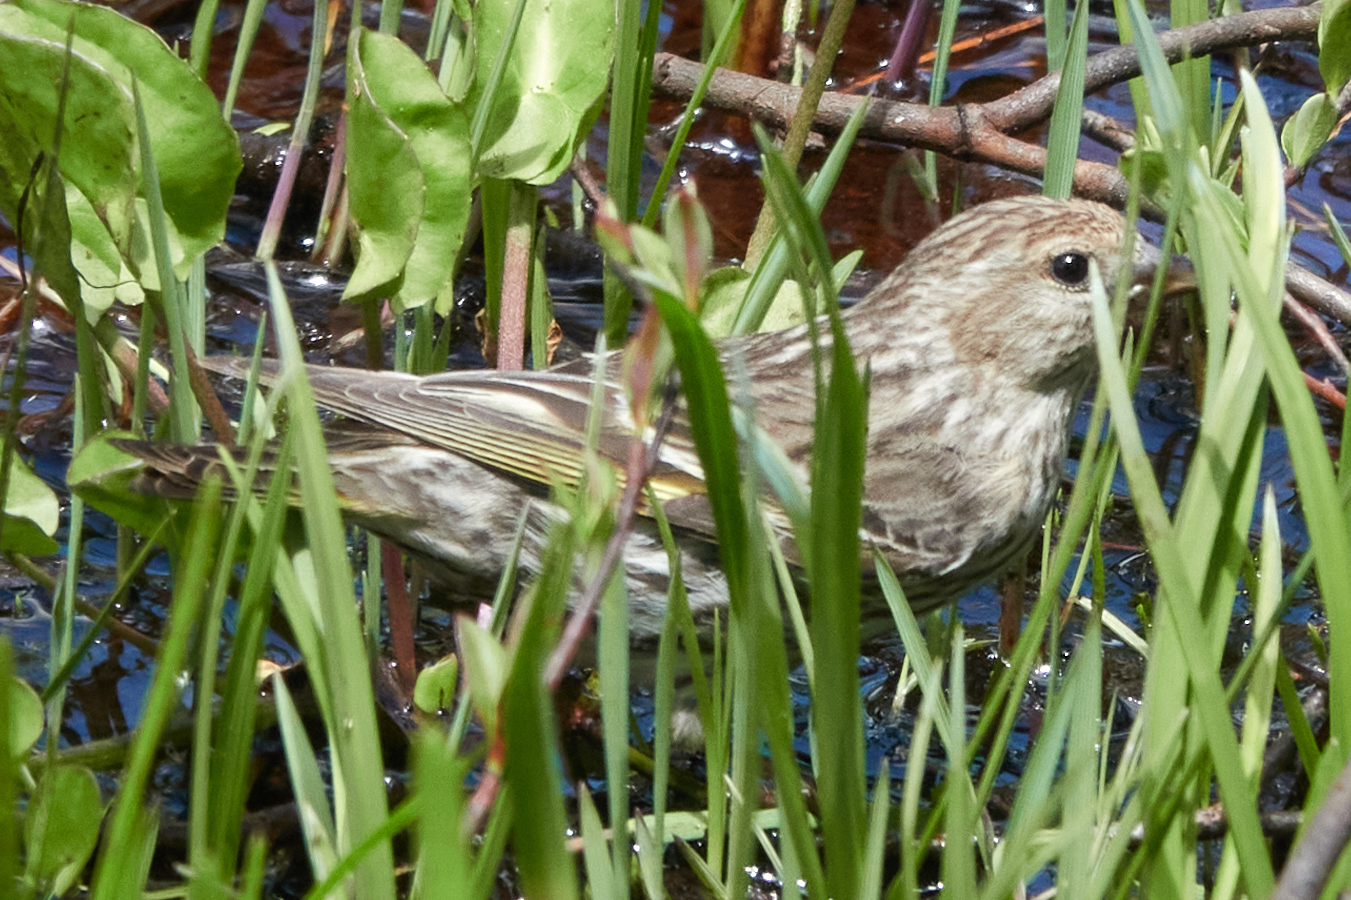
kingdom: Animalia
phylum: Chordata
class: Aves
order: Passeriformes
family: Fringillidae
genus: Spinus
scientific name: Spinus pinus
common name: Pine siskin
